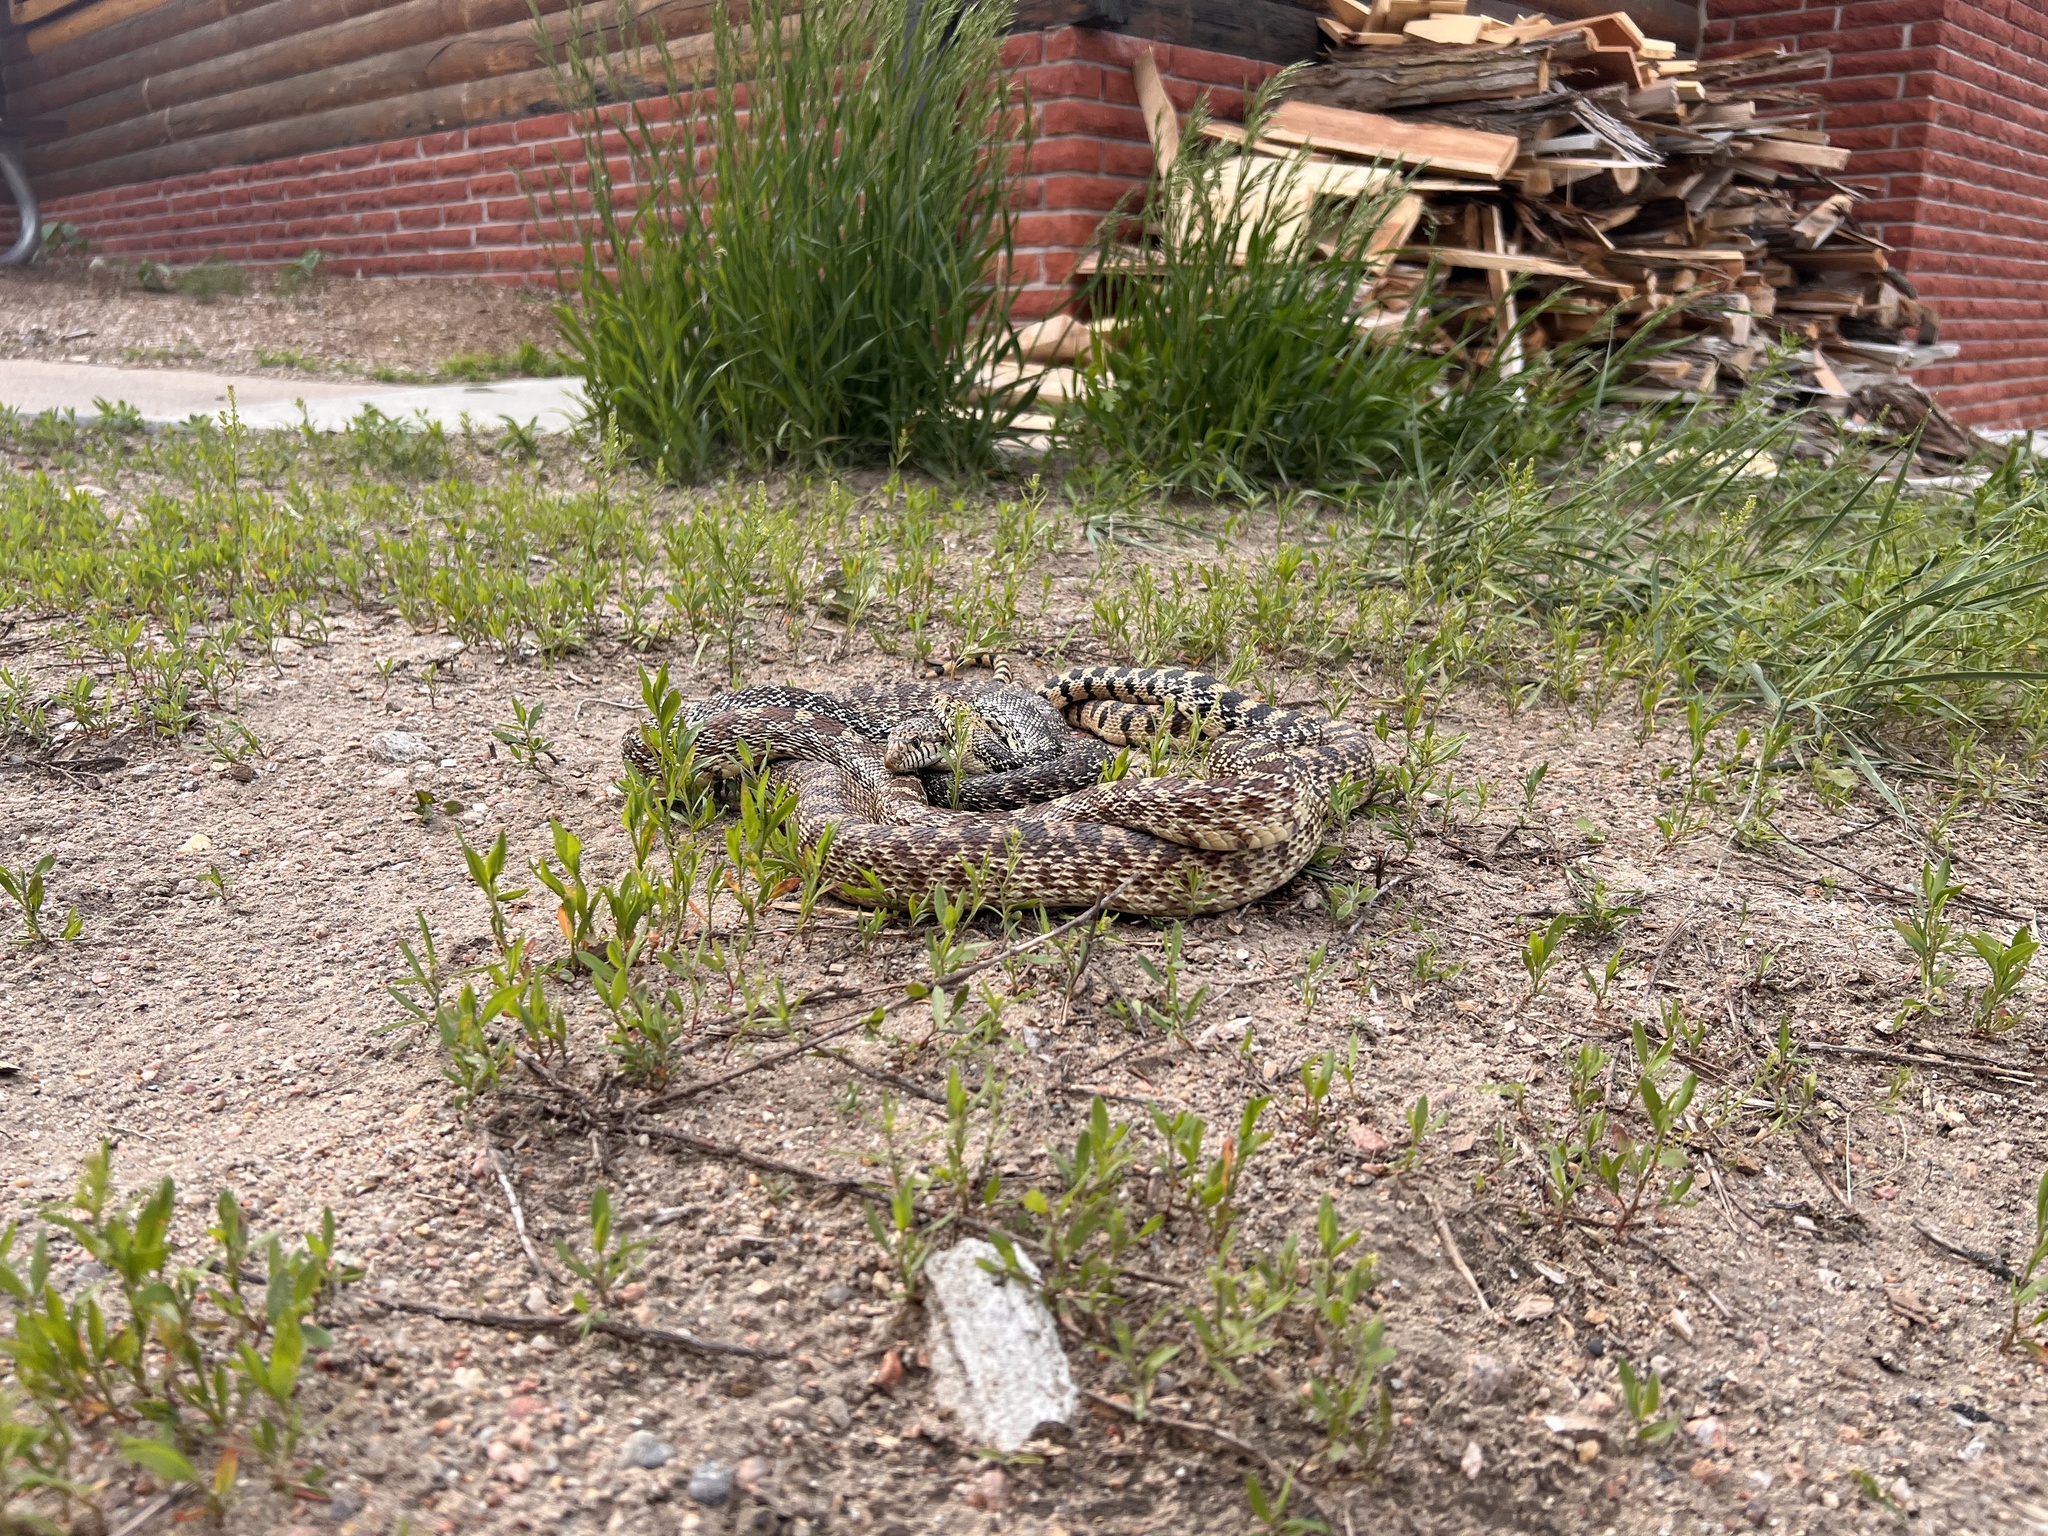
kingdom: Animalia
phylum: Chordata
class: Squamata
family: Colubridae
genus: Pituophis
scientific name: Pituophis catenifer
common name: Gopher snake
